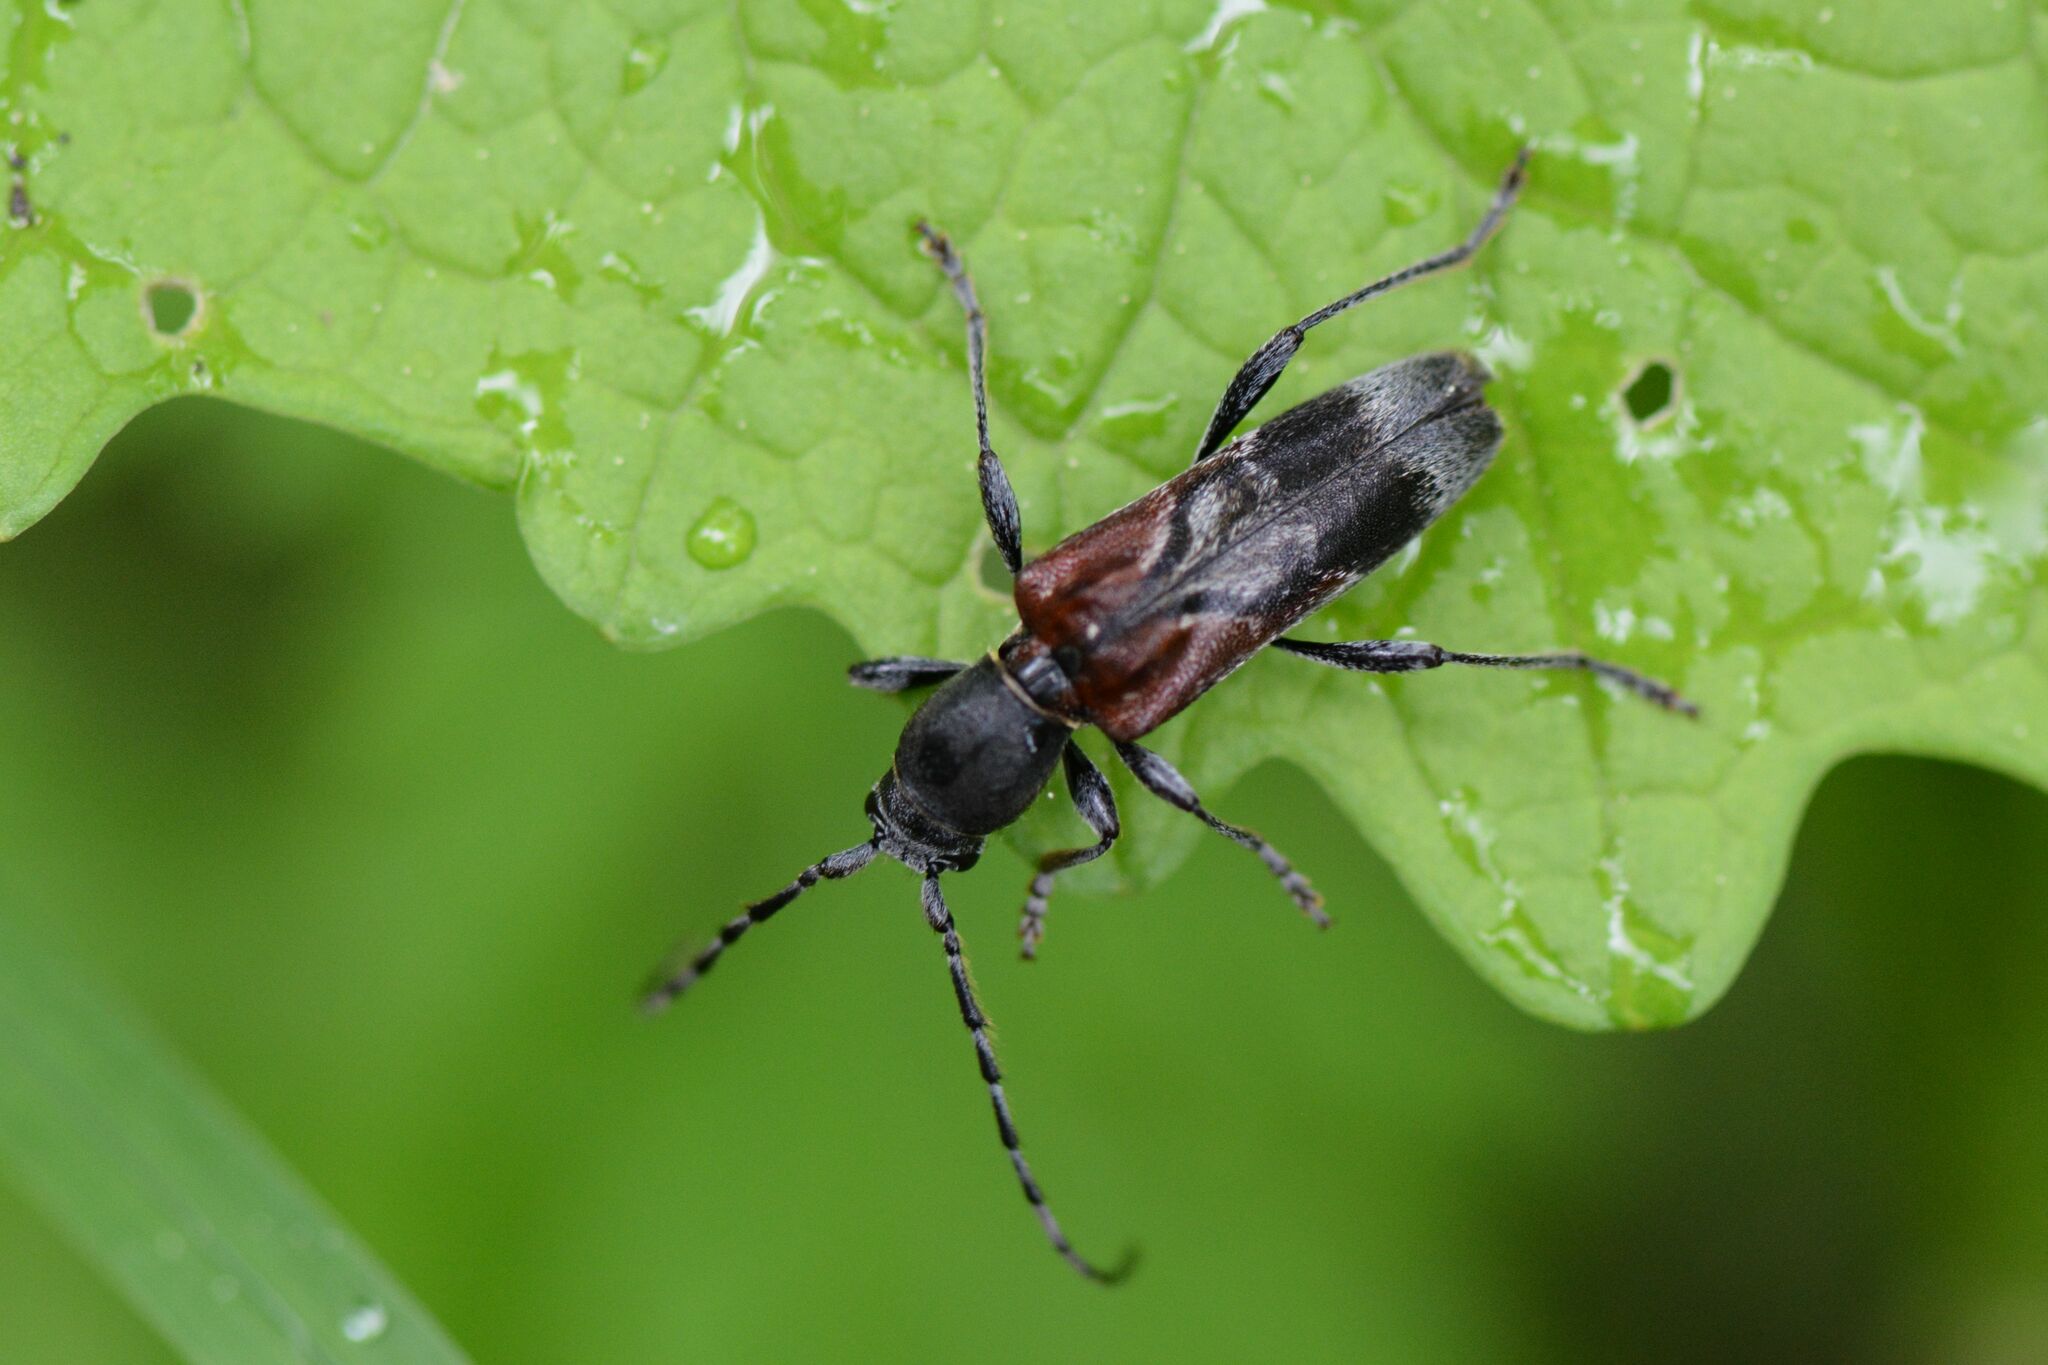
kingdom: Animalia
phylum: Arthropoda
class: Insecta
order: Coleoptera
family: Cerambycidae
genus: Anaglyptus
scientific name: Anaglyptus mysticus
